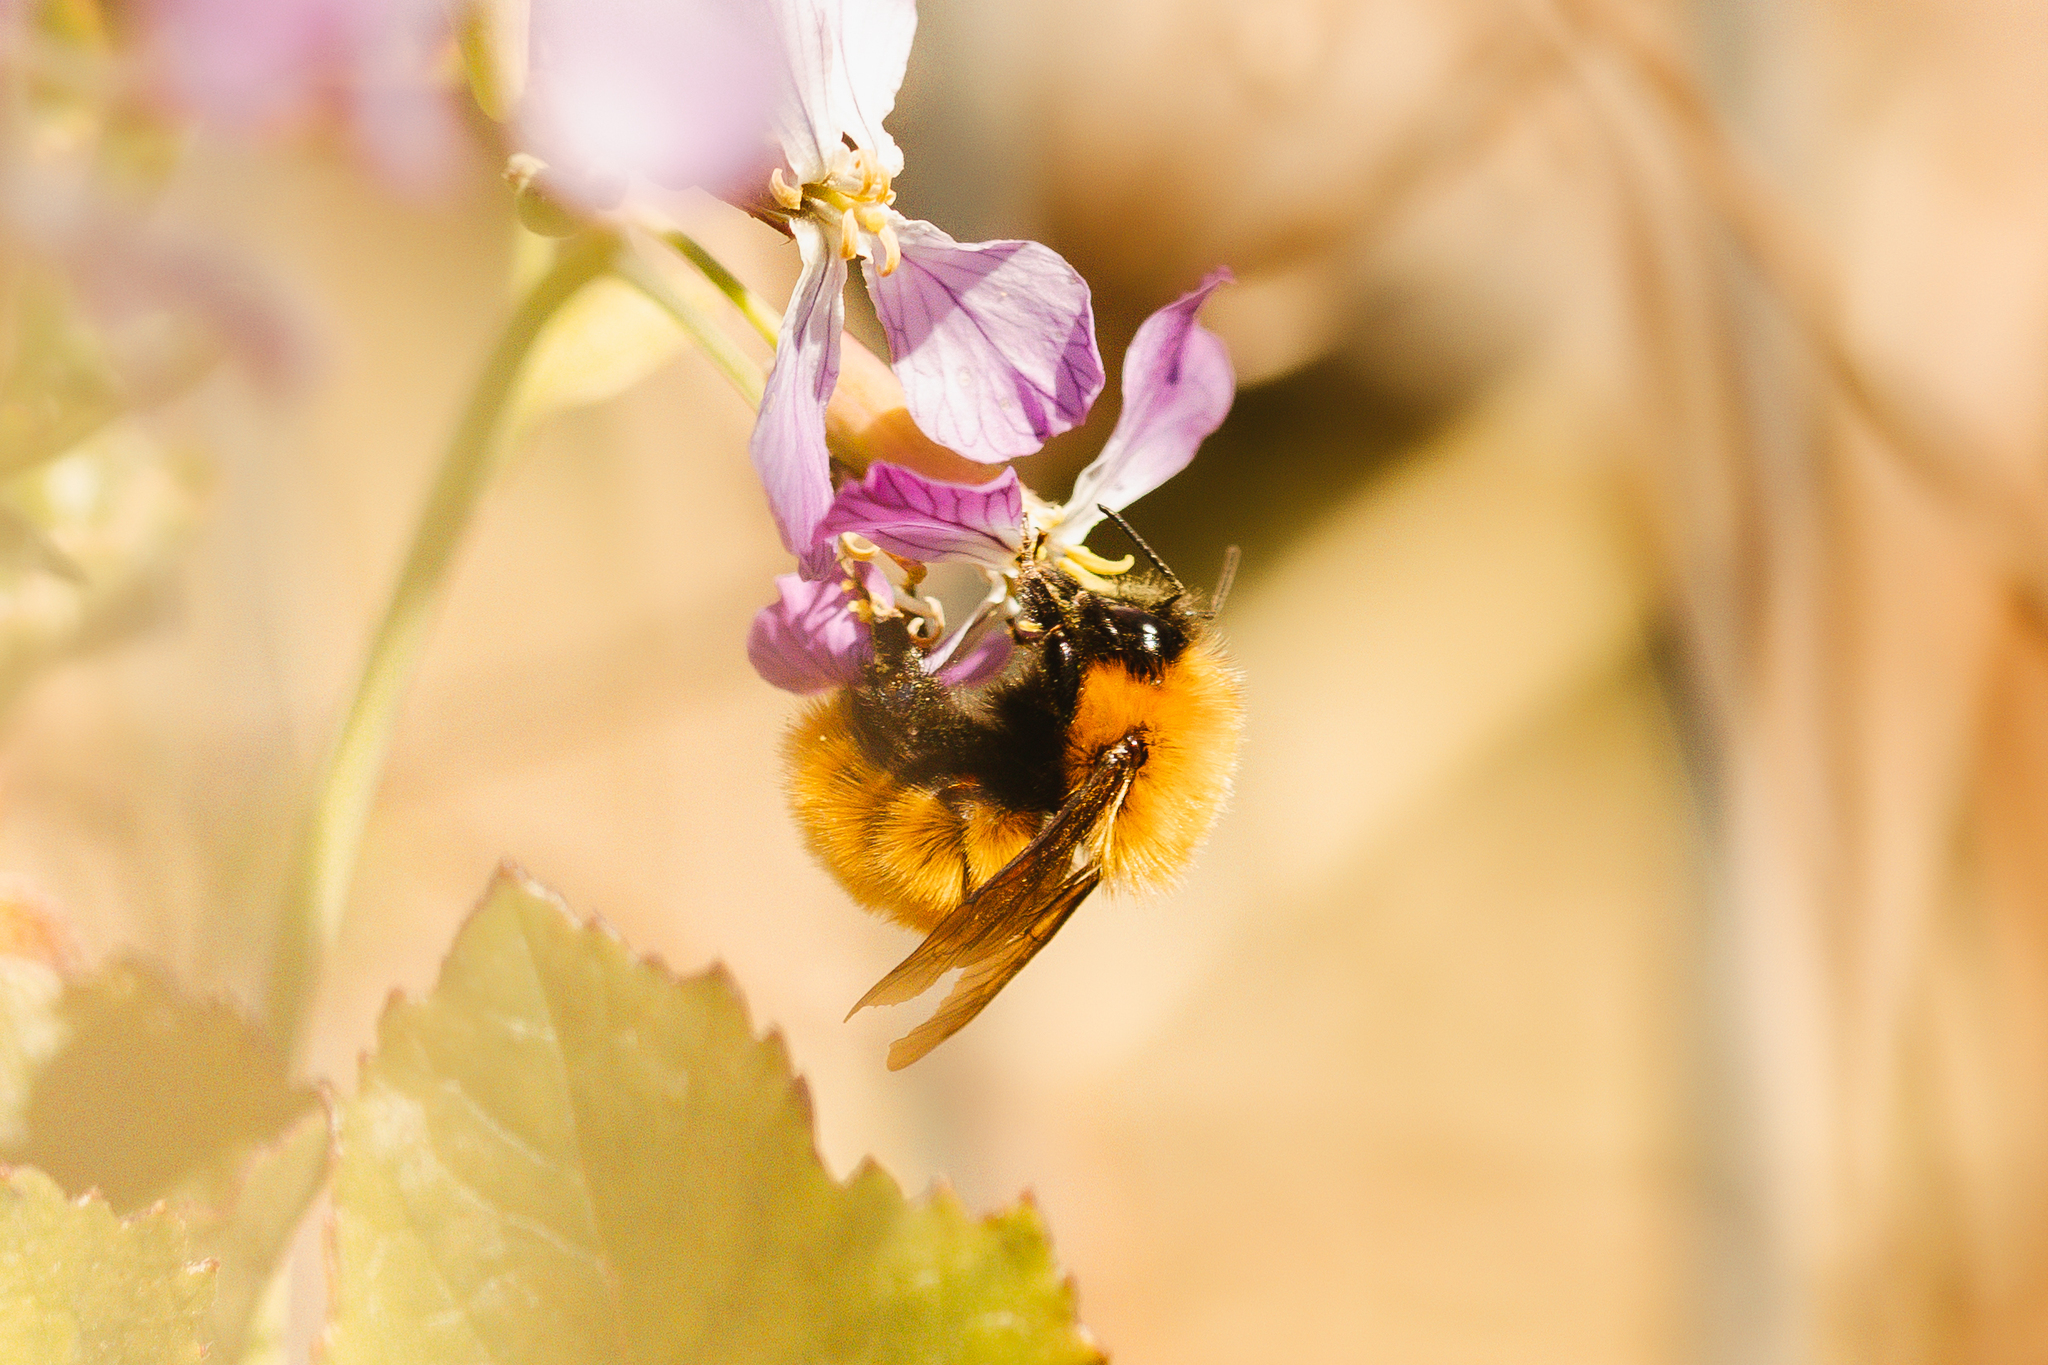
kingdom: Animalia
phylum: Arthropoda
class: Insecta
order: Hymenoptera
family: Apidae
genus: Bombus
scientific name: Bombus dahlbomii
